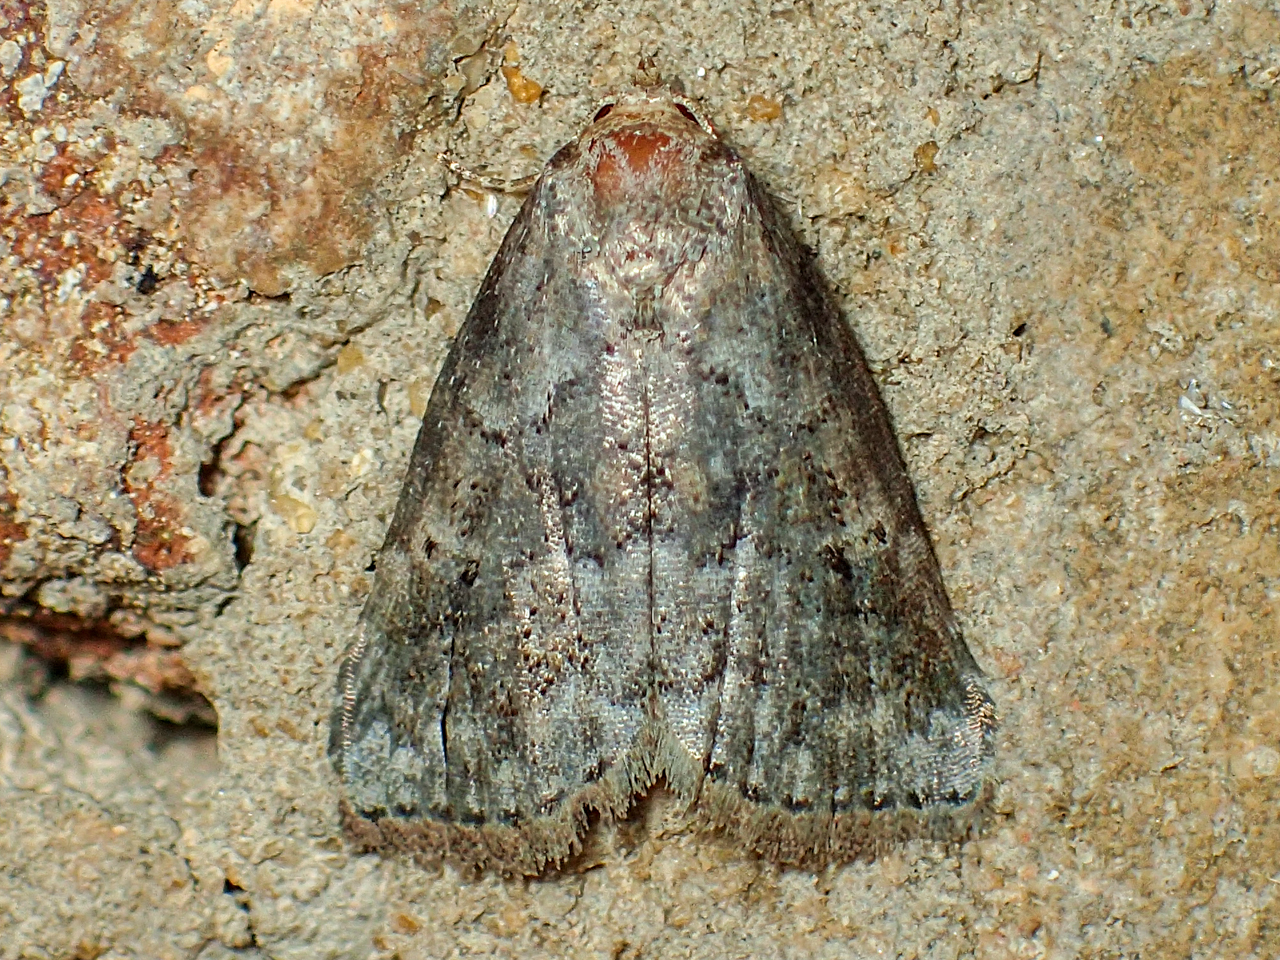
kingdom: Animalia
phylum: Arthropoda
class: Insecta
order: Lepidoptera
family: Erebidae
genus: Hyperstrotia
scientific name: Hyperstrotia nana
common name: White-lined graylet
